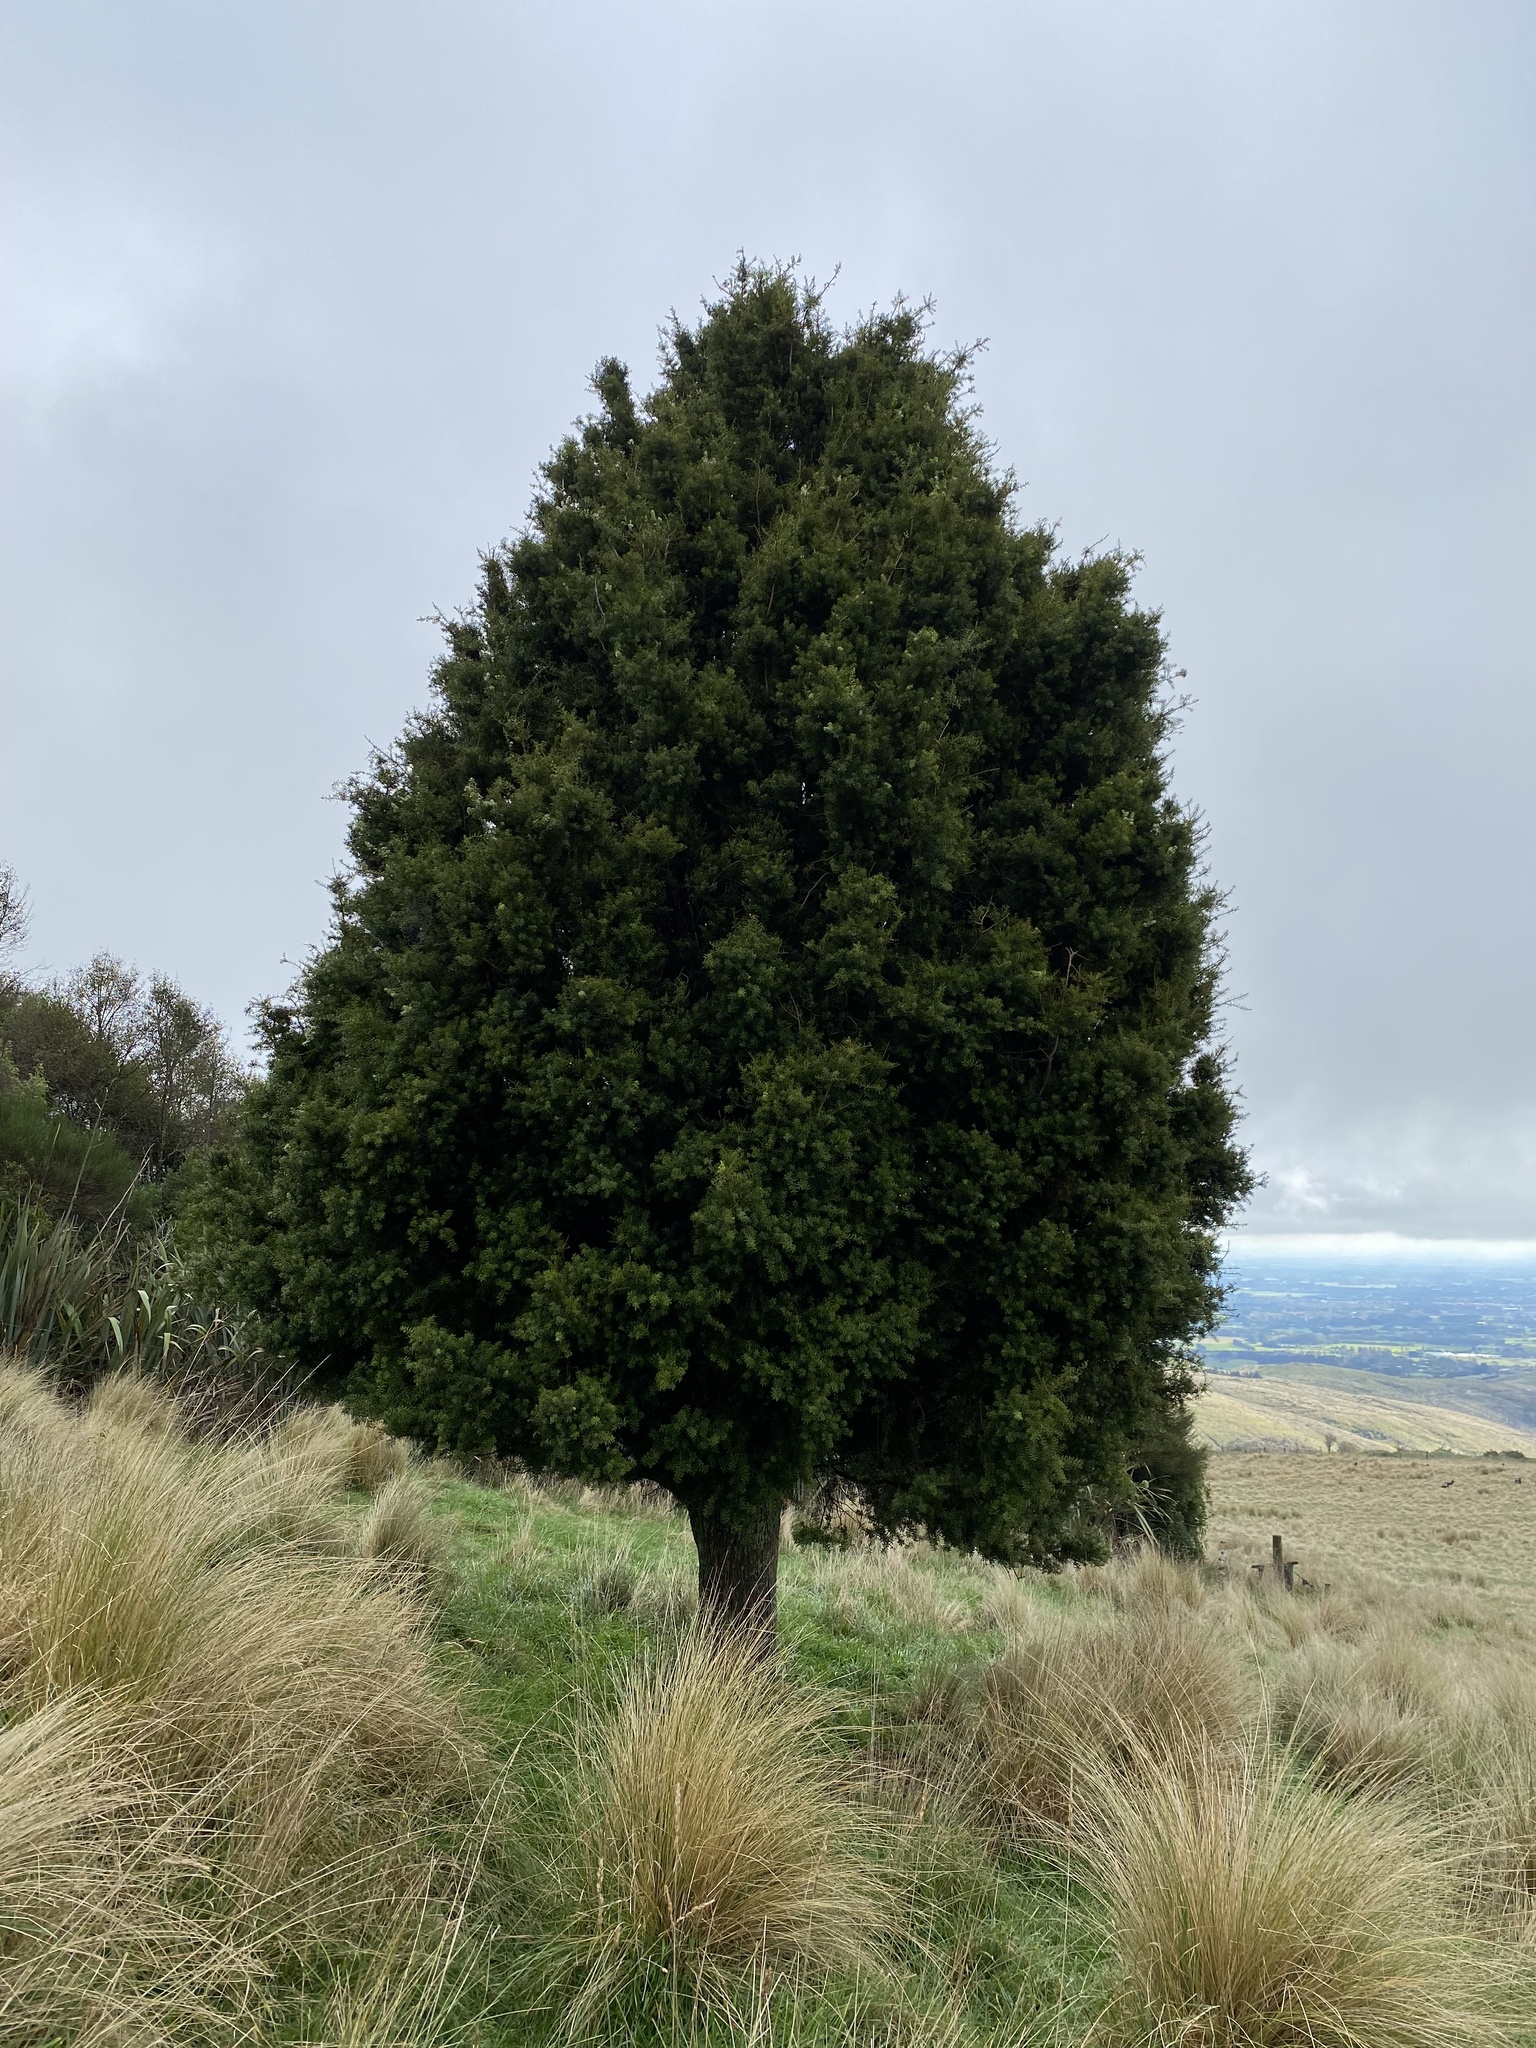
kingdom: Plantae
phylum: Tracheophyta
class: Pinopsida
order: Pinales
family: Podocarpaceae
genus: Podocarpus
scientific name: Podocarpus totara
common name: Totara
